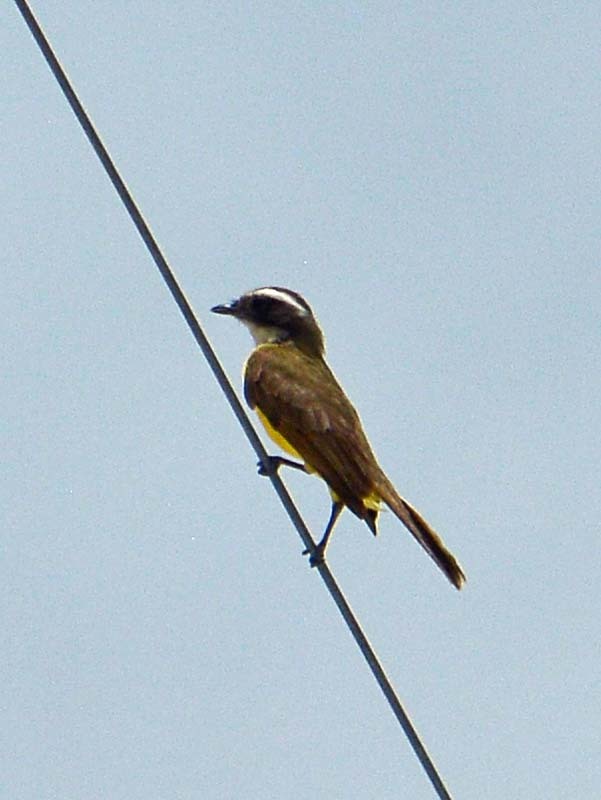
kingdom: Animalia
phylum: Chordata
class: Aves
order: Passeriformes
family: Tyrannidae
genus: Myiozetetes
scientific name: Myiozetetes similis
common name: Social flycatcher
